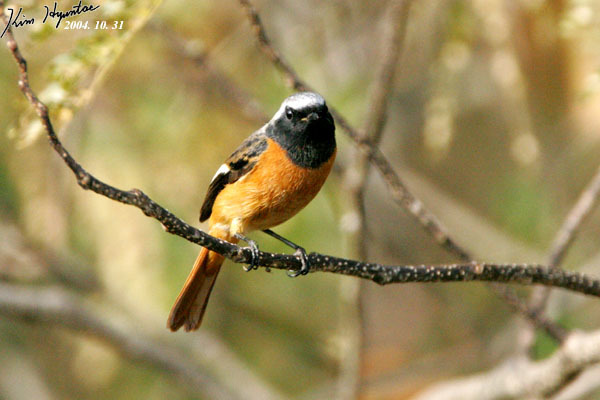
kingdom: Animalia
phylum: Chordata
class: Aves
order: Passeriformes
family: Muscicapidae
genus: Phoenicurus
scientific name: Phoenicurus auroreus
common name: Daurian redstart
